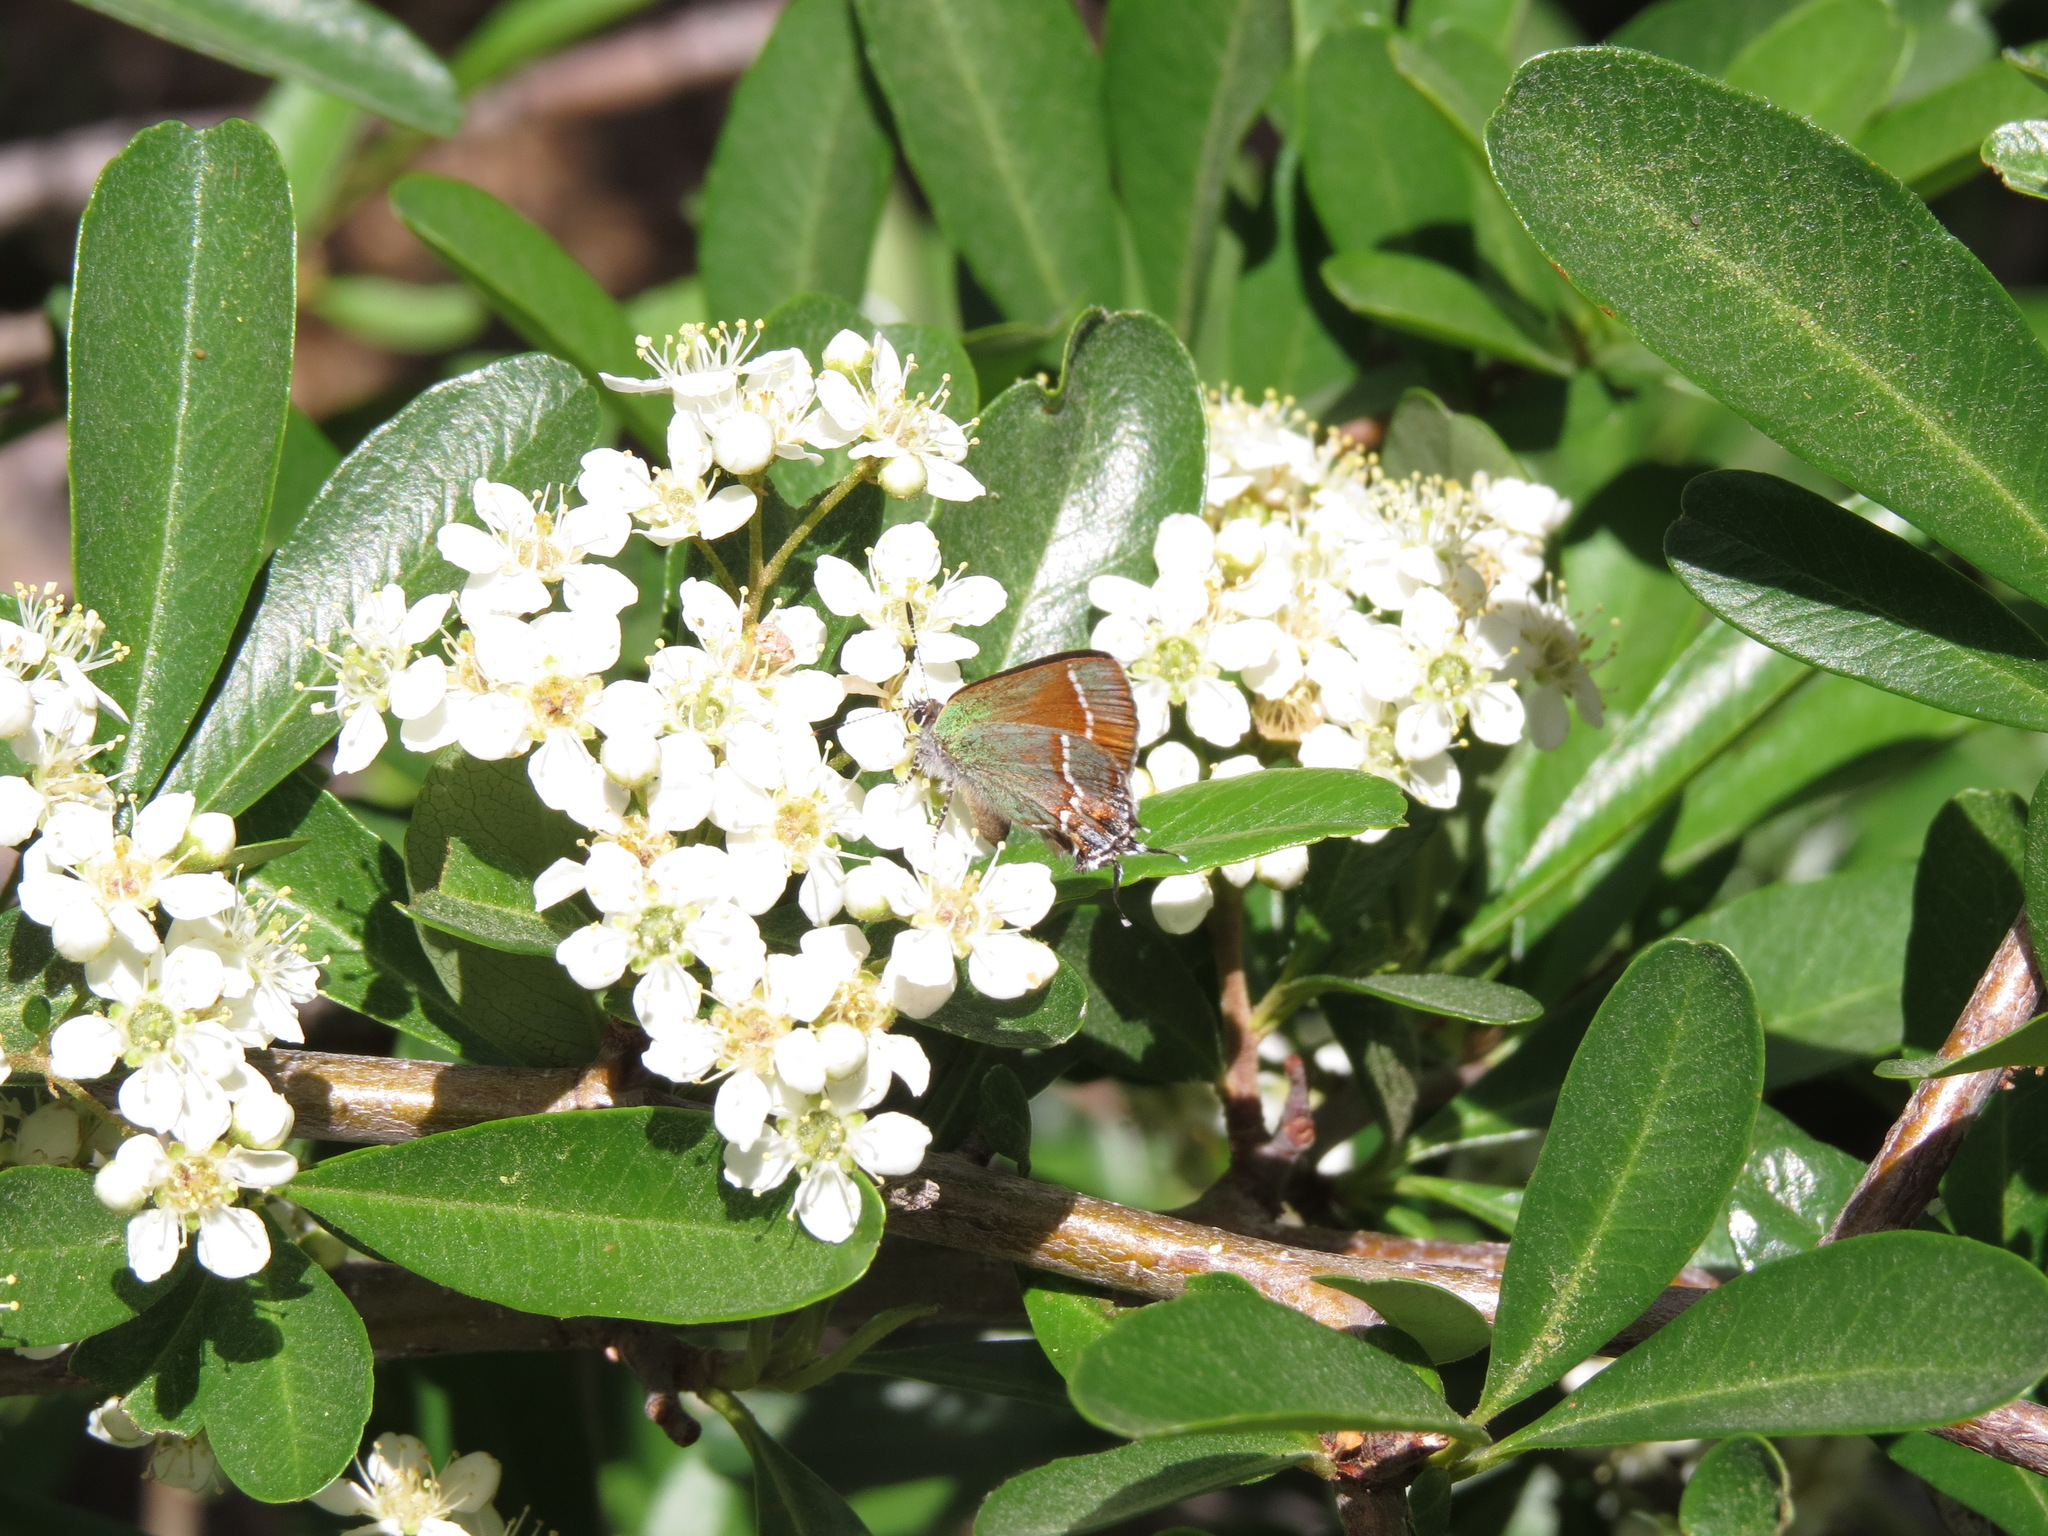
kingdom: Animalia
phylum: Arthropoda
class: Insecta
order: Lepidoptera
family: Lycaenidae
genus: Mitoura
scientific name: Mitoura gryneus
